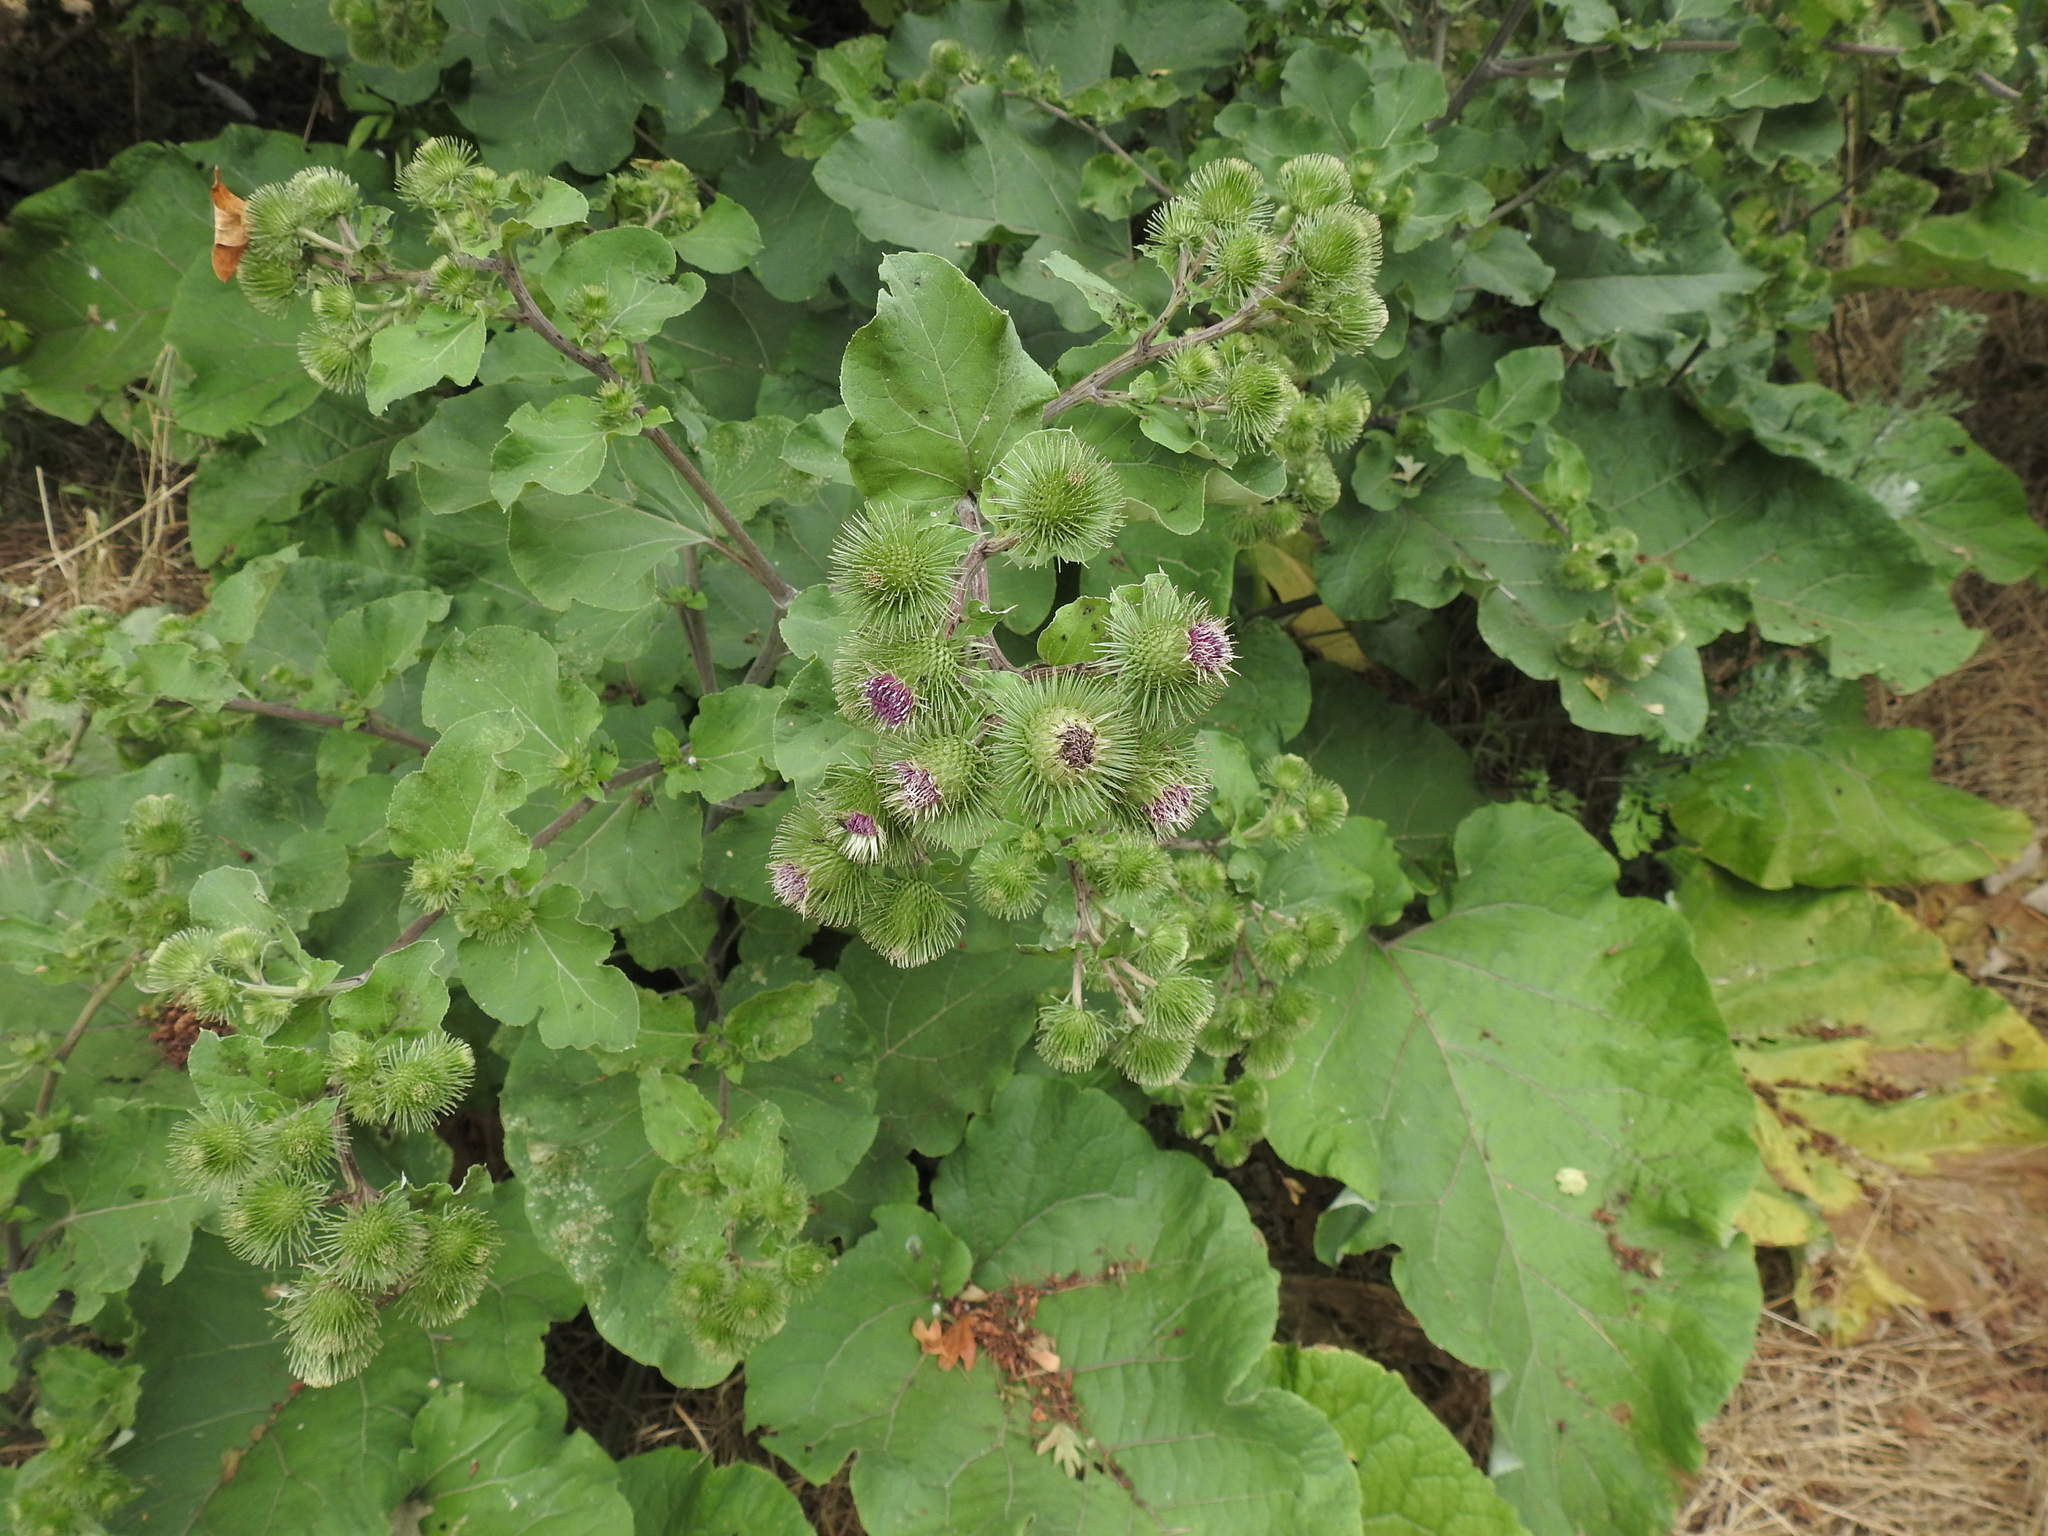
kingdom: Plantae
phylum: Tracheophyta
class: Magnoliopsida
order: Asterales
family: Asteraceae
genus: Arctium
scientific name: Arctium lappa
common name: Greater burdock
